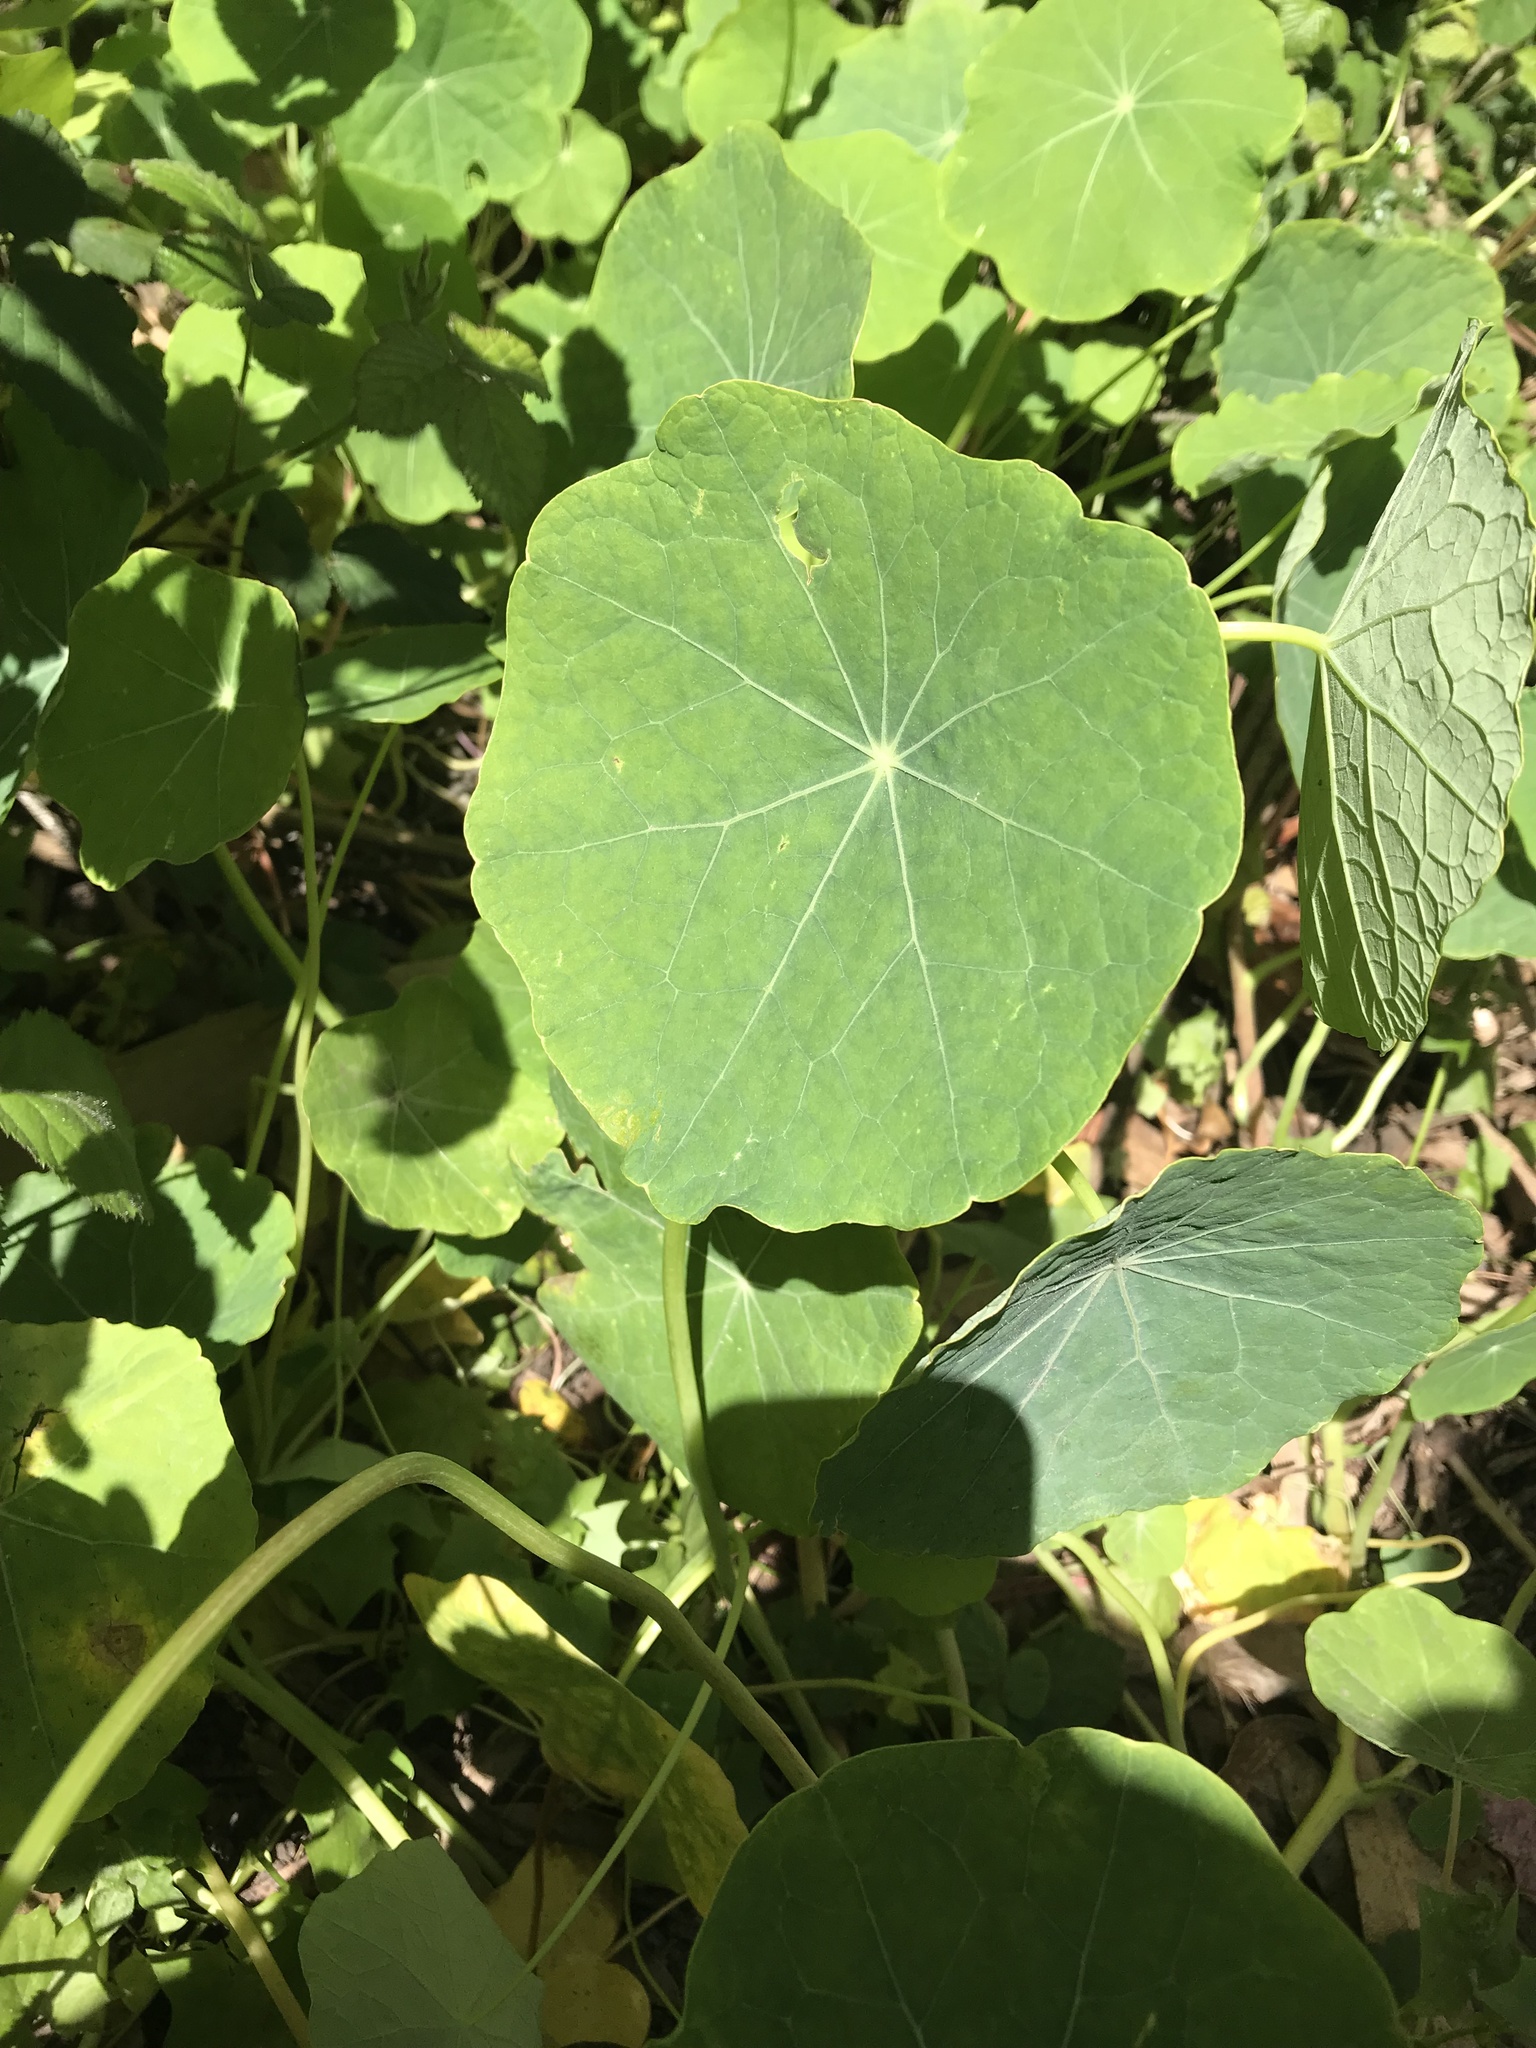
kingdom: Plantae
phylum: Tracheophyta
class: Magnoliopsida
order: Brassicales
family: Tropaeolaceae
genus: Tropaeolum
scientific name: Tropaeolum majus
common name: Nasturtium
